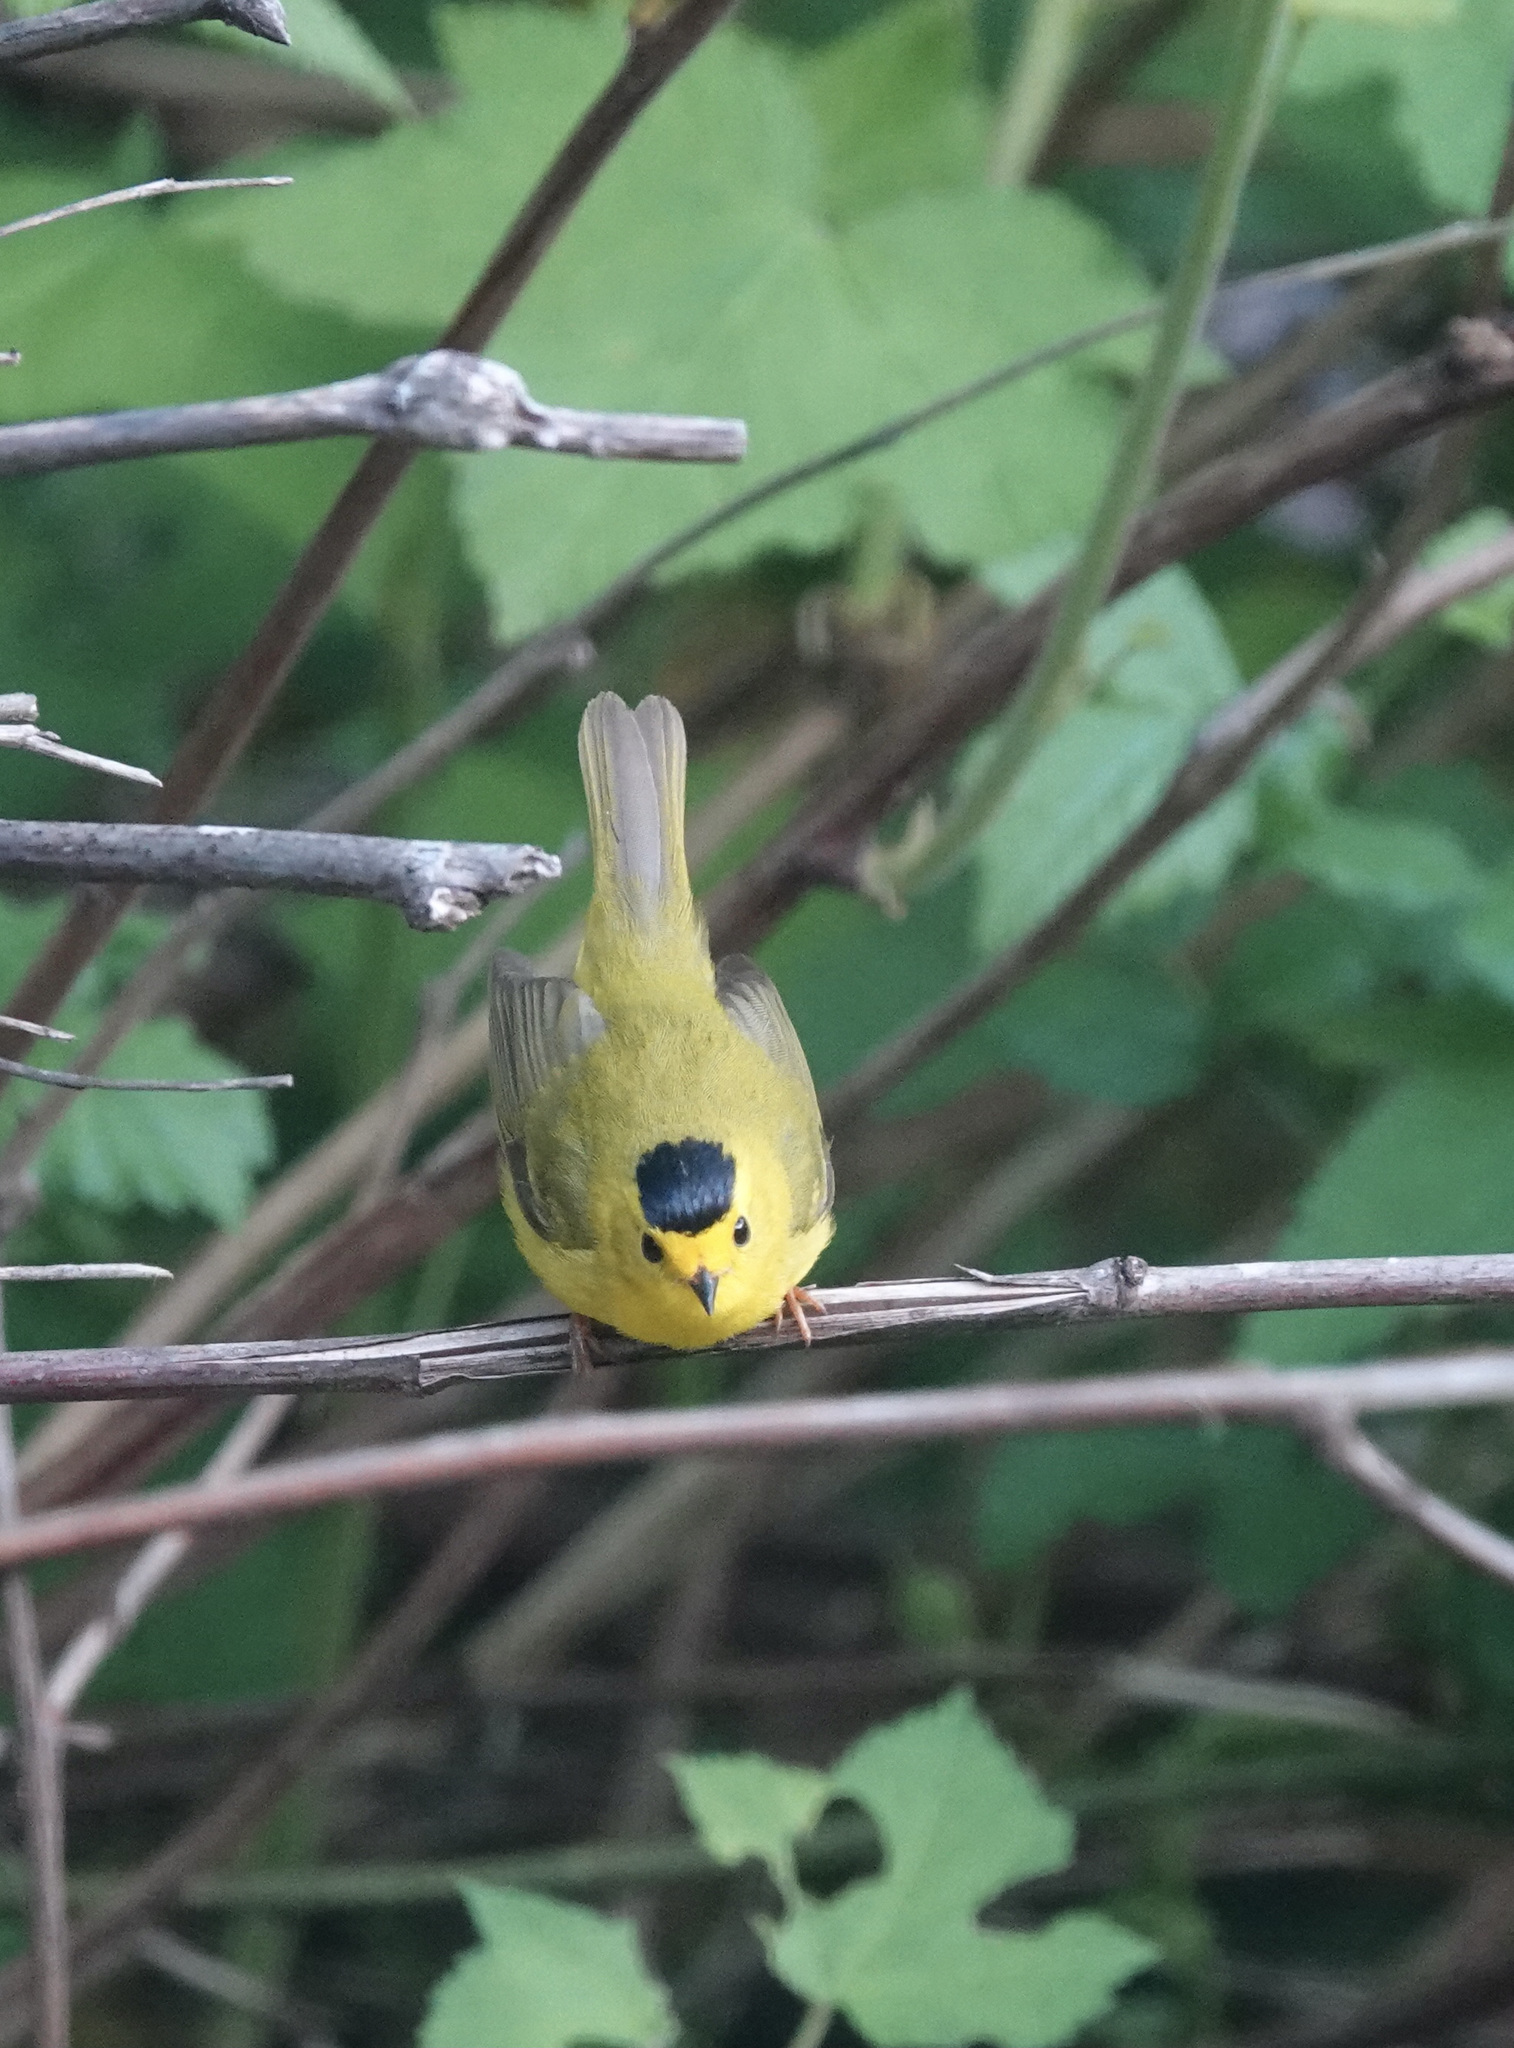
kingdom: Animalia
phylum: Chordata
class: Aves
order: Passeriformes
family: Parulidae
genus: Cardellina
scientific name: Cardellina pusilla
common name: Wilson's warbler
